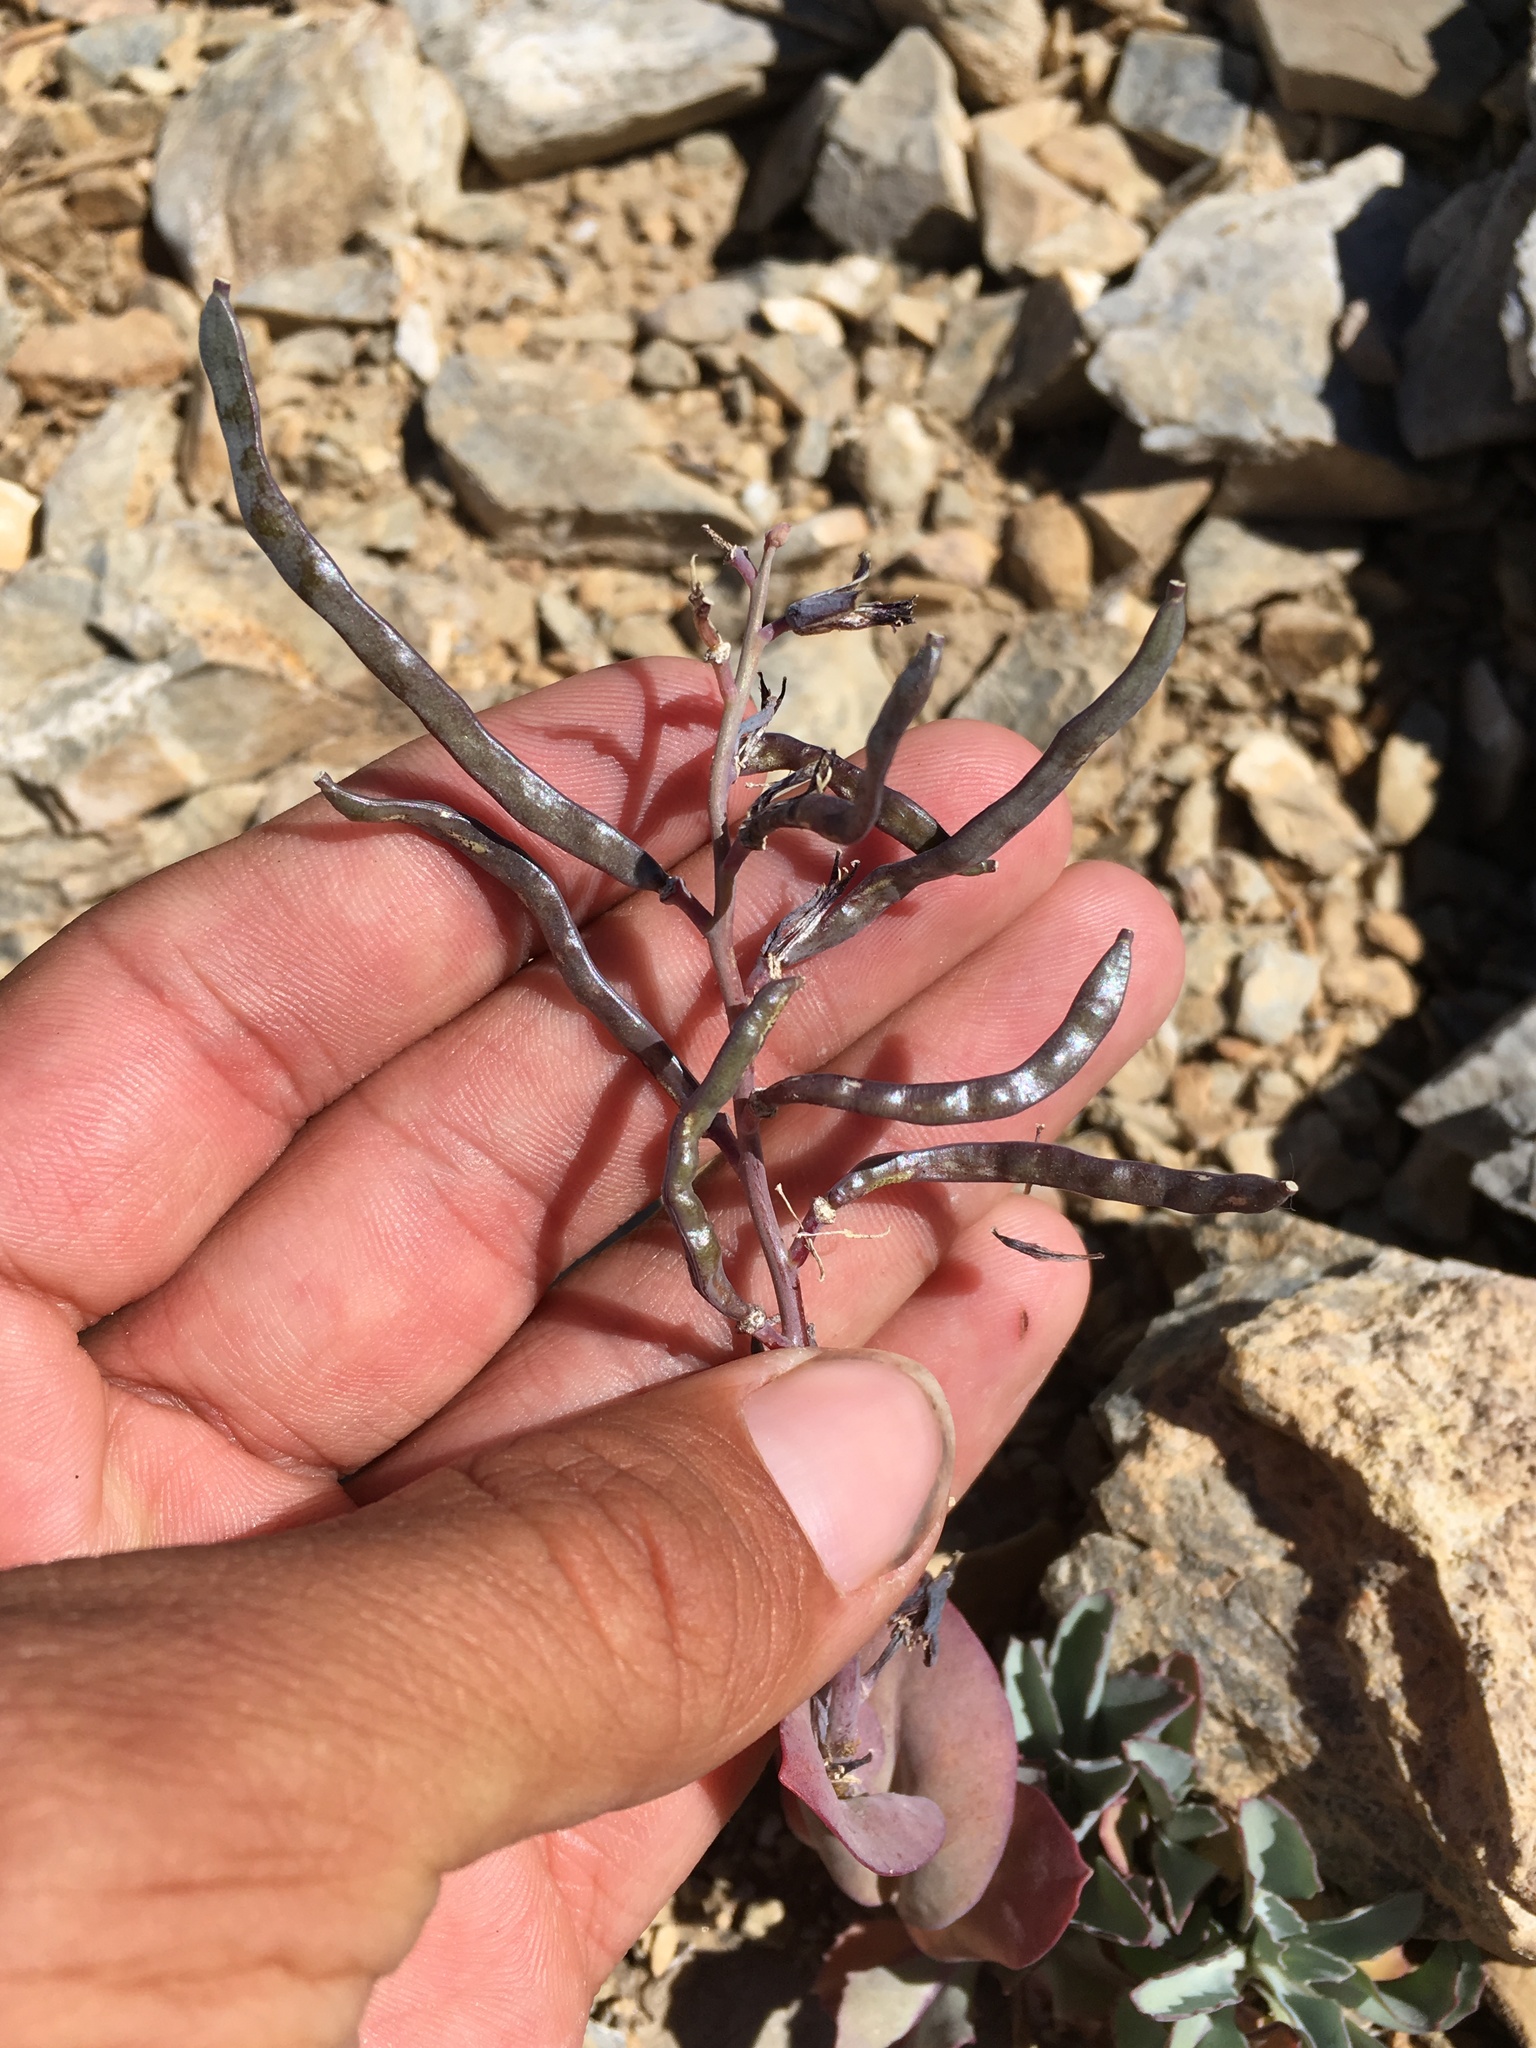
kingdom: Plantae
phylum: Tracheophyta
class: Magnoliopsida
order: Brassicales
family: Brassicaceae
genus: Streptanthus
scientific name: Streptanthus cordatus
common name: Heart-leaf jewel-flower
